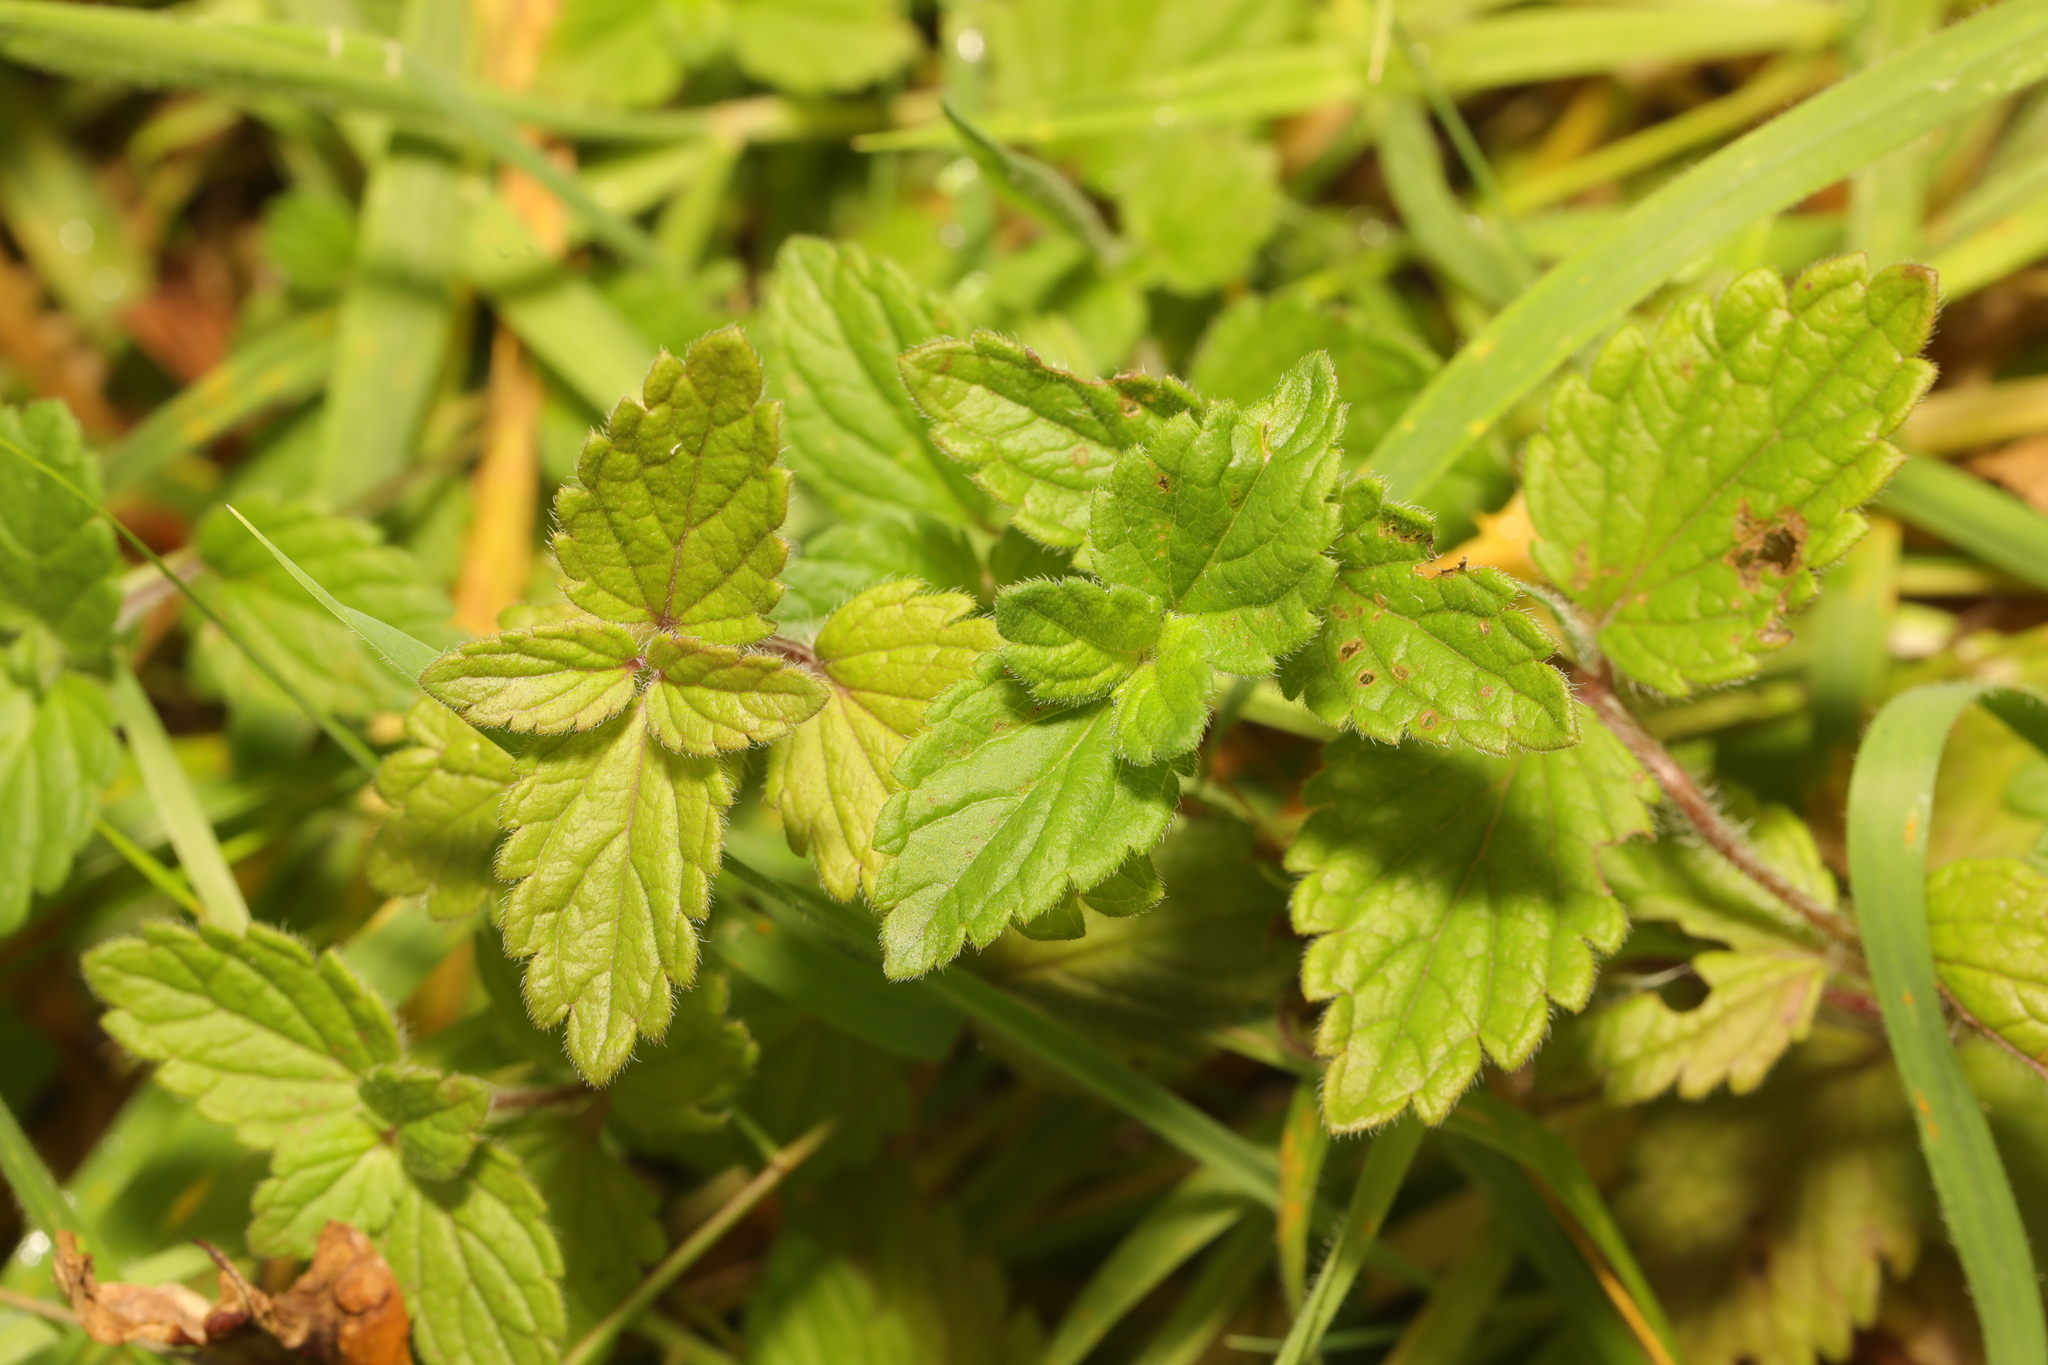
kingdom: Plantae
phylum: Tracheophyta
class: Magnoliopsida
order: Lamiales
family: Plantaginaceae
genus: Veronica
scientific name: Veronica chamaedrys
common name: Germander speedwell
